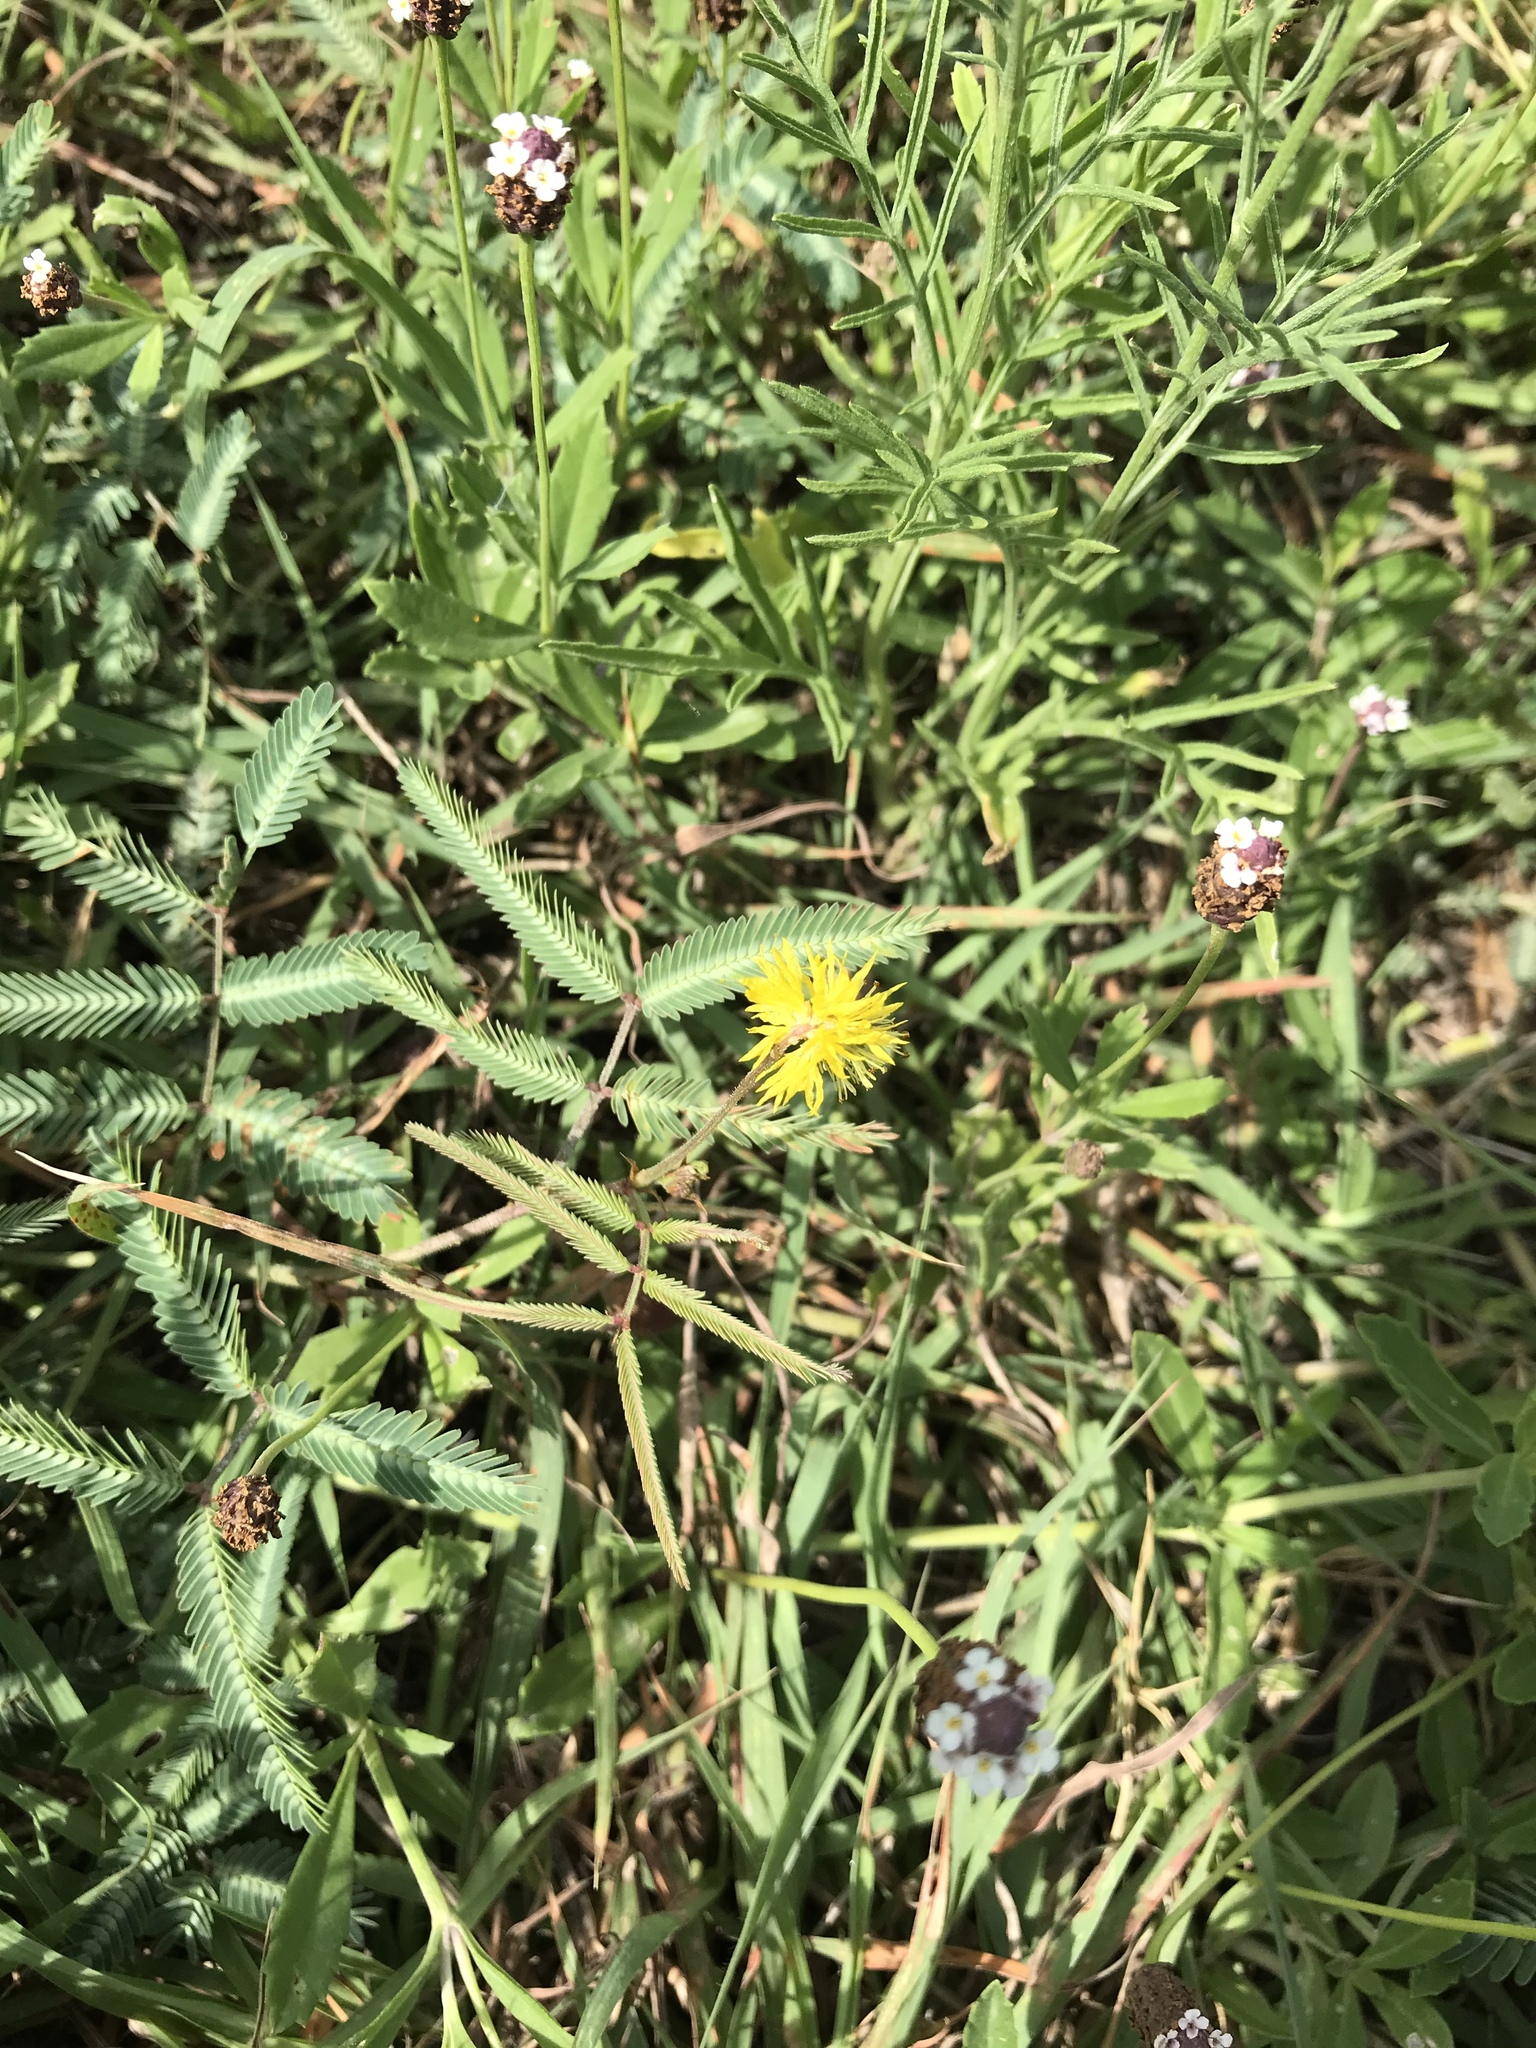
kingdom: Plantae
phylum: Tracheophyta
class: Magnoliopsida
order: Fabales
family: Fabaceae
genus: Neptunia
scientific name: Neptunia pubescens
